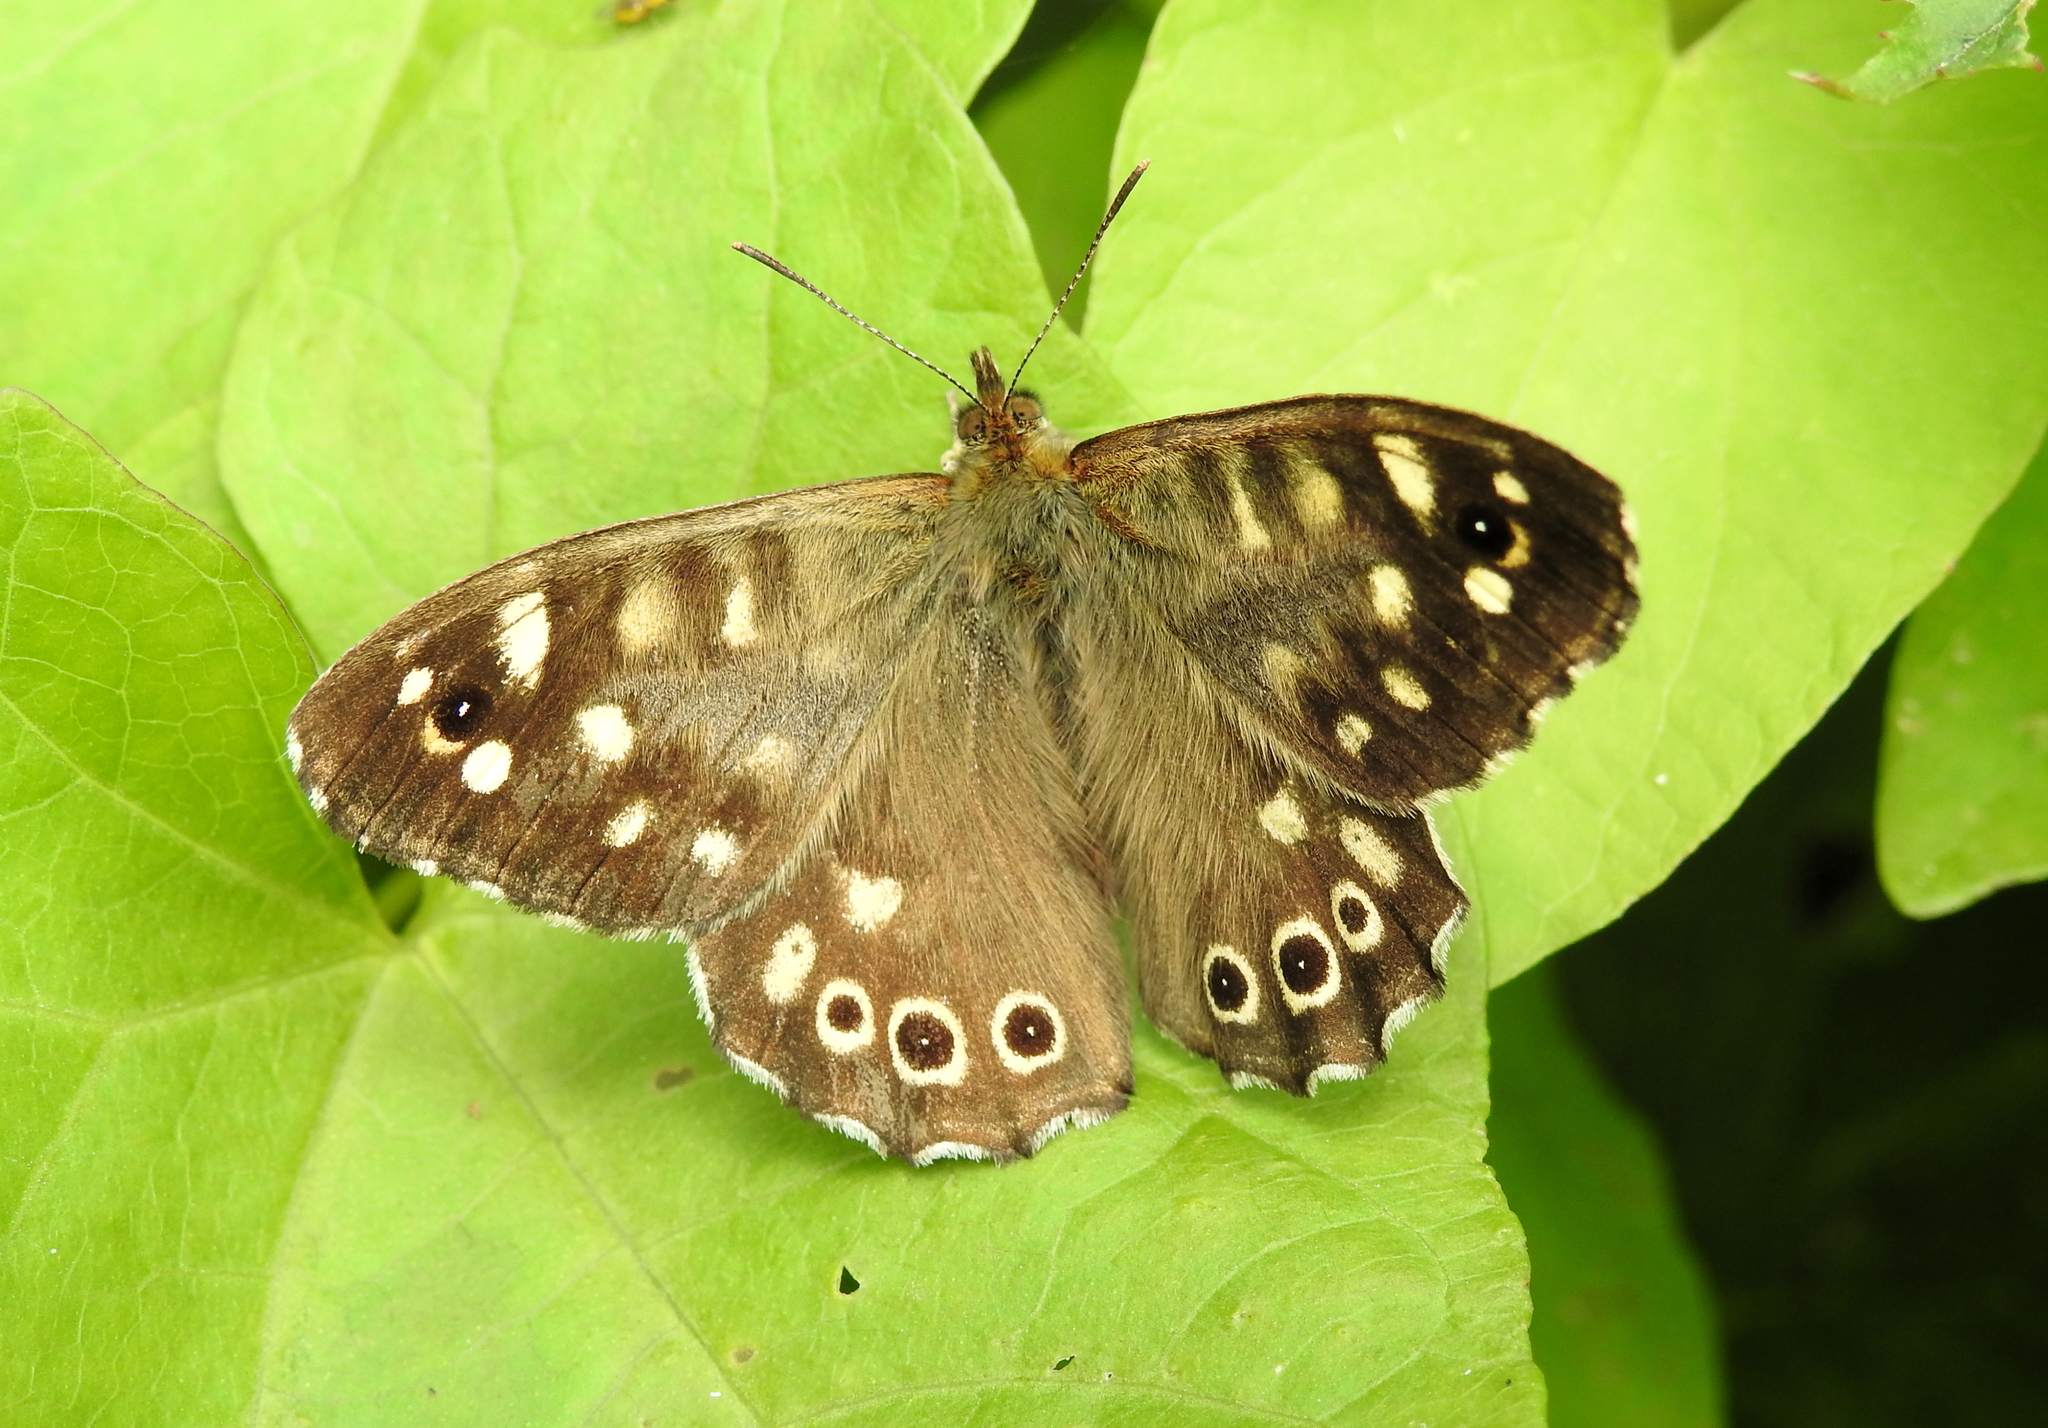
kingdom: Animalia
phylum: Arthropoda
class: Insecta
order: Lepidoptera
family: Nymphalidae
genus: Pararge
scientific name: Pararge aegeria
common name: Speckled wood
